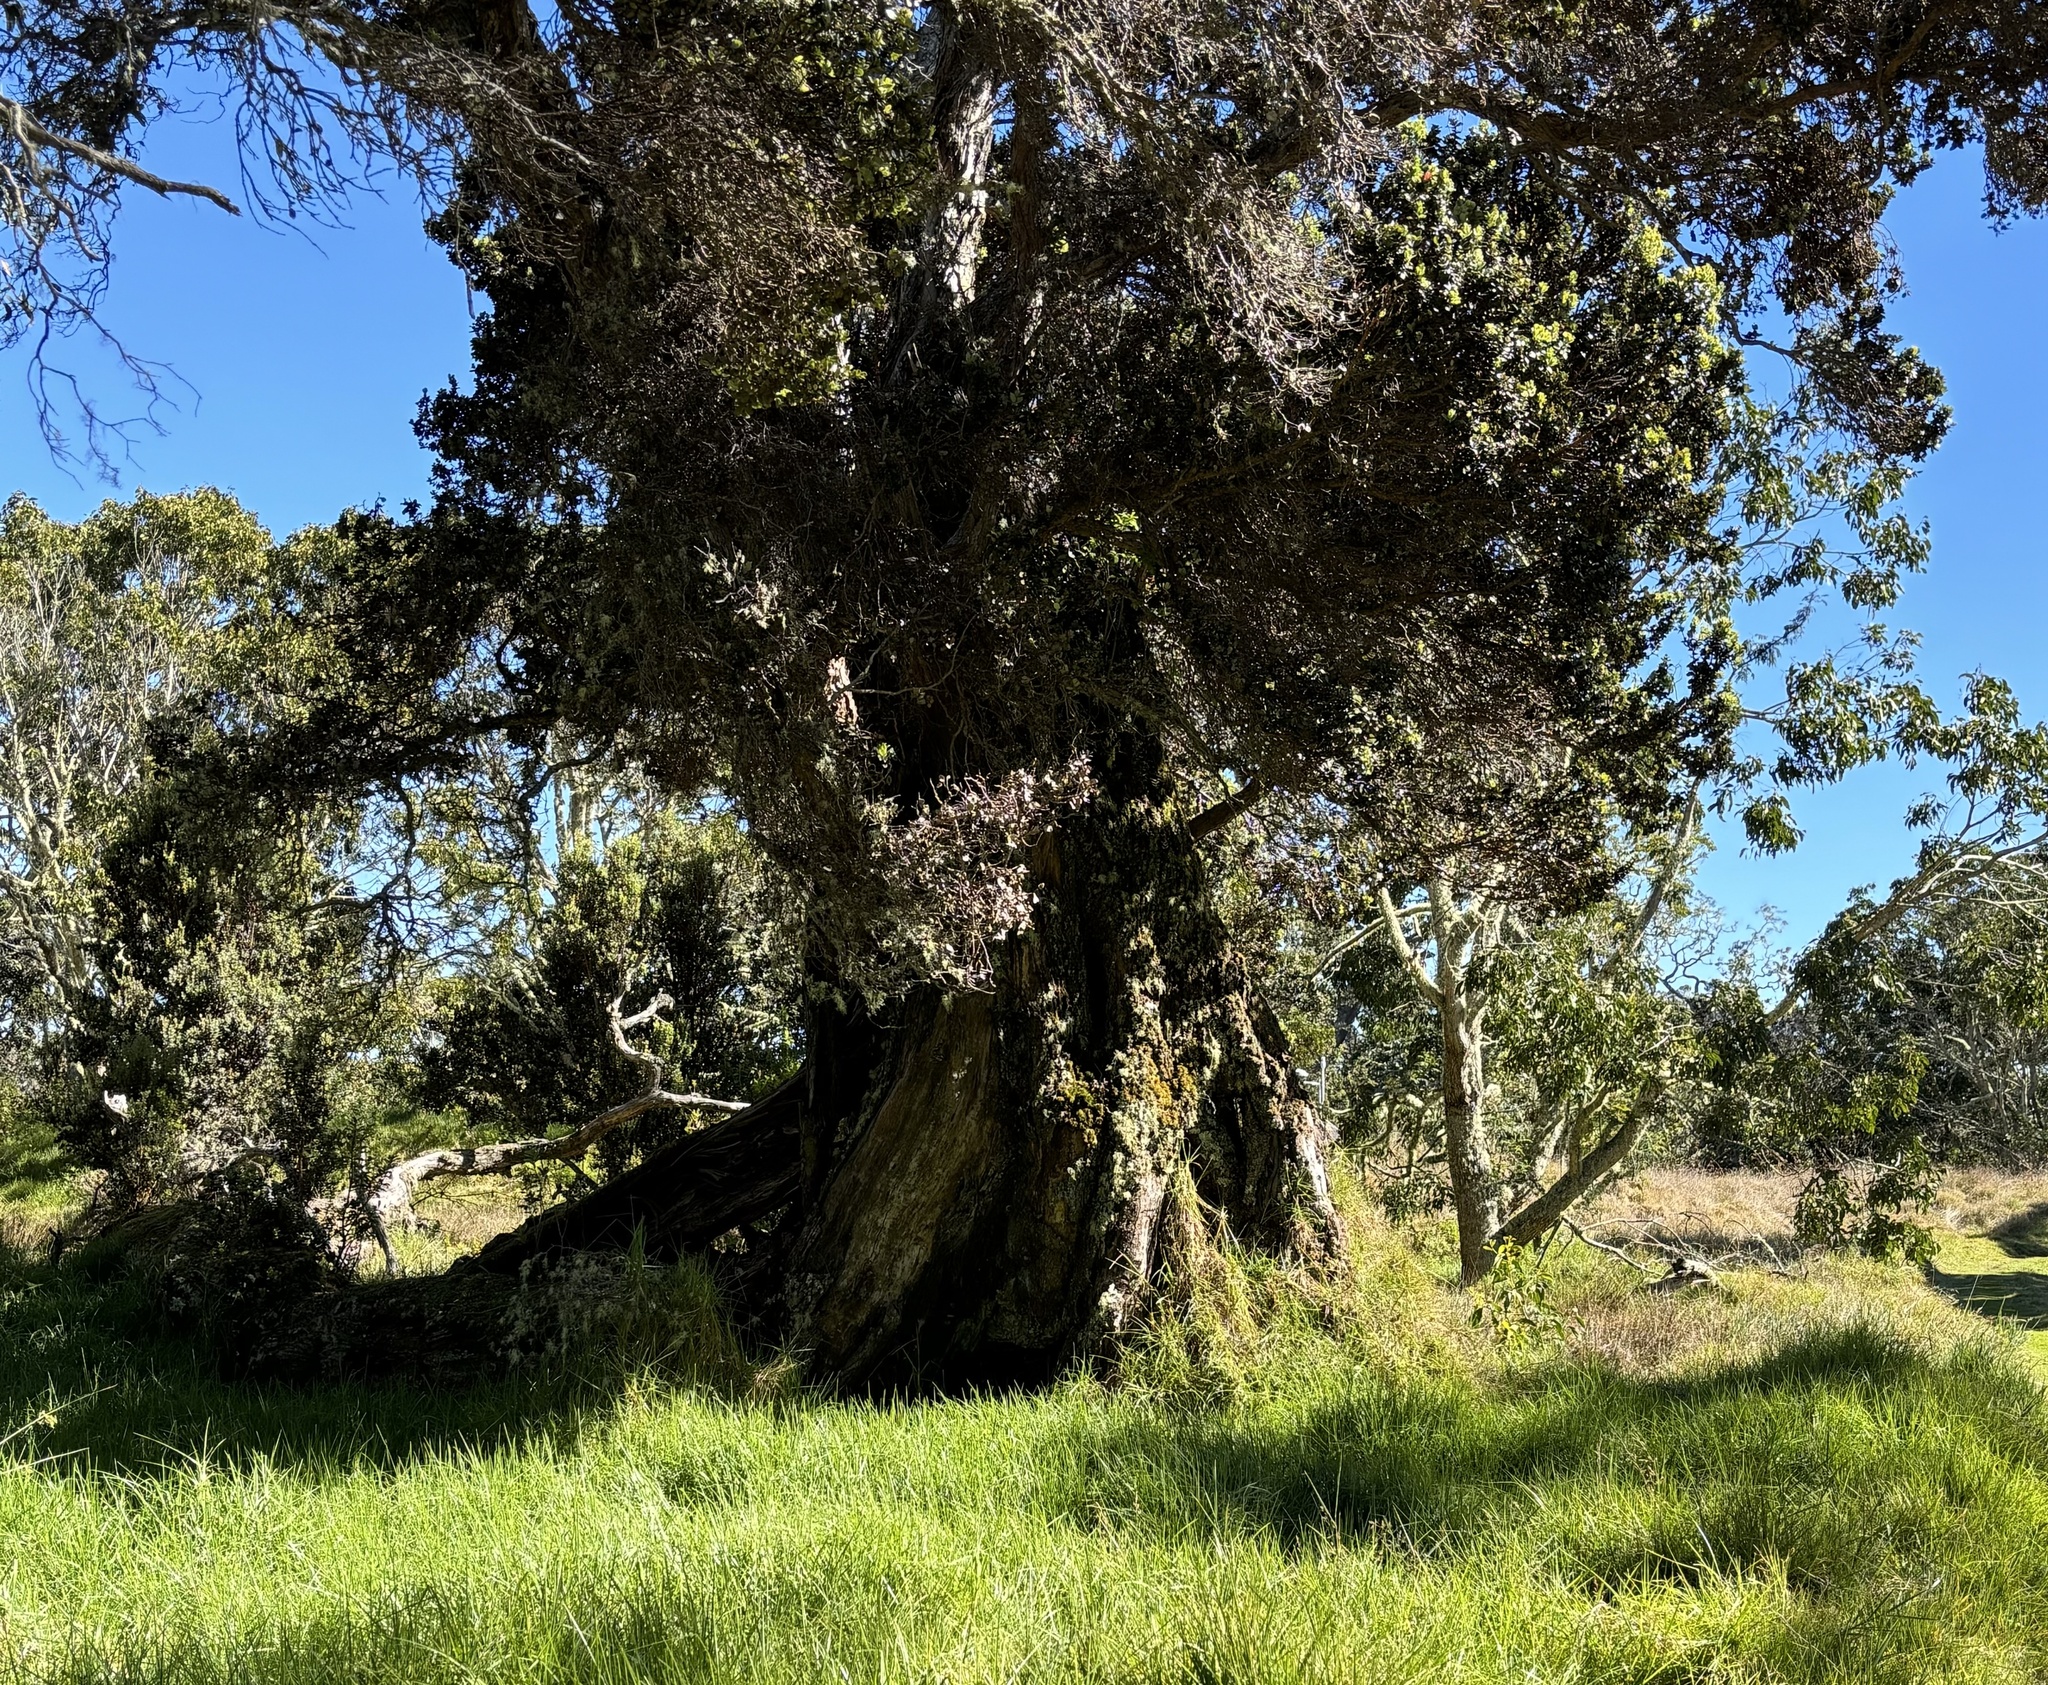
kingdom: Plantae
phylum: Tracheophyta
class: Magnoliopsida
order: Myrtales
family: Myrtaceae
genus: Metrosideros
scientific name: Metrosideros polymorpha
